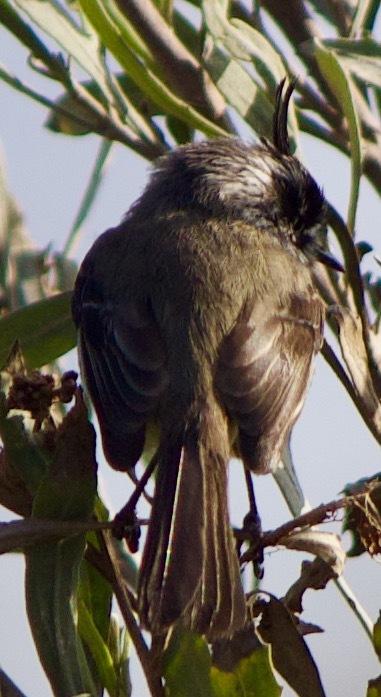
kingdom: Animalia
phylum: Chordata
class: Aves
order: Passeriformes
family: Tyrannidae
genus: Anairetes
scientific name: Anairetes parulus
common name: Tufted tit-tyrant
